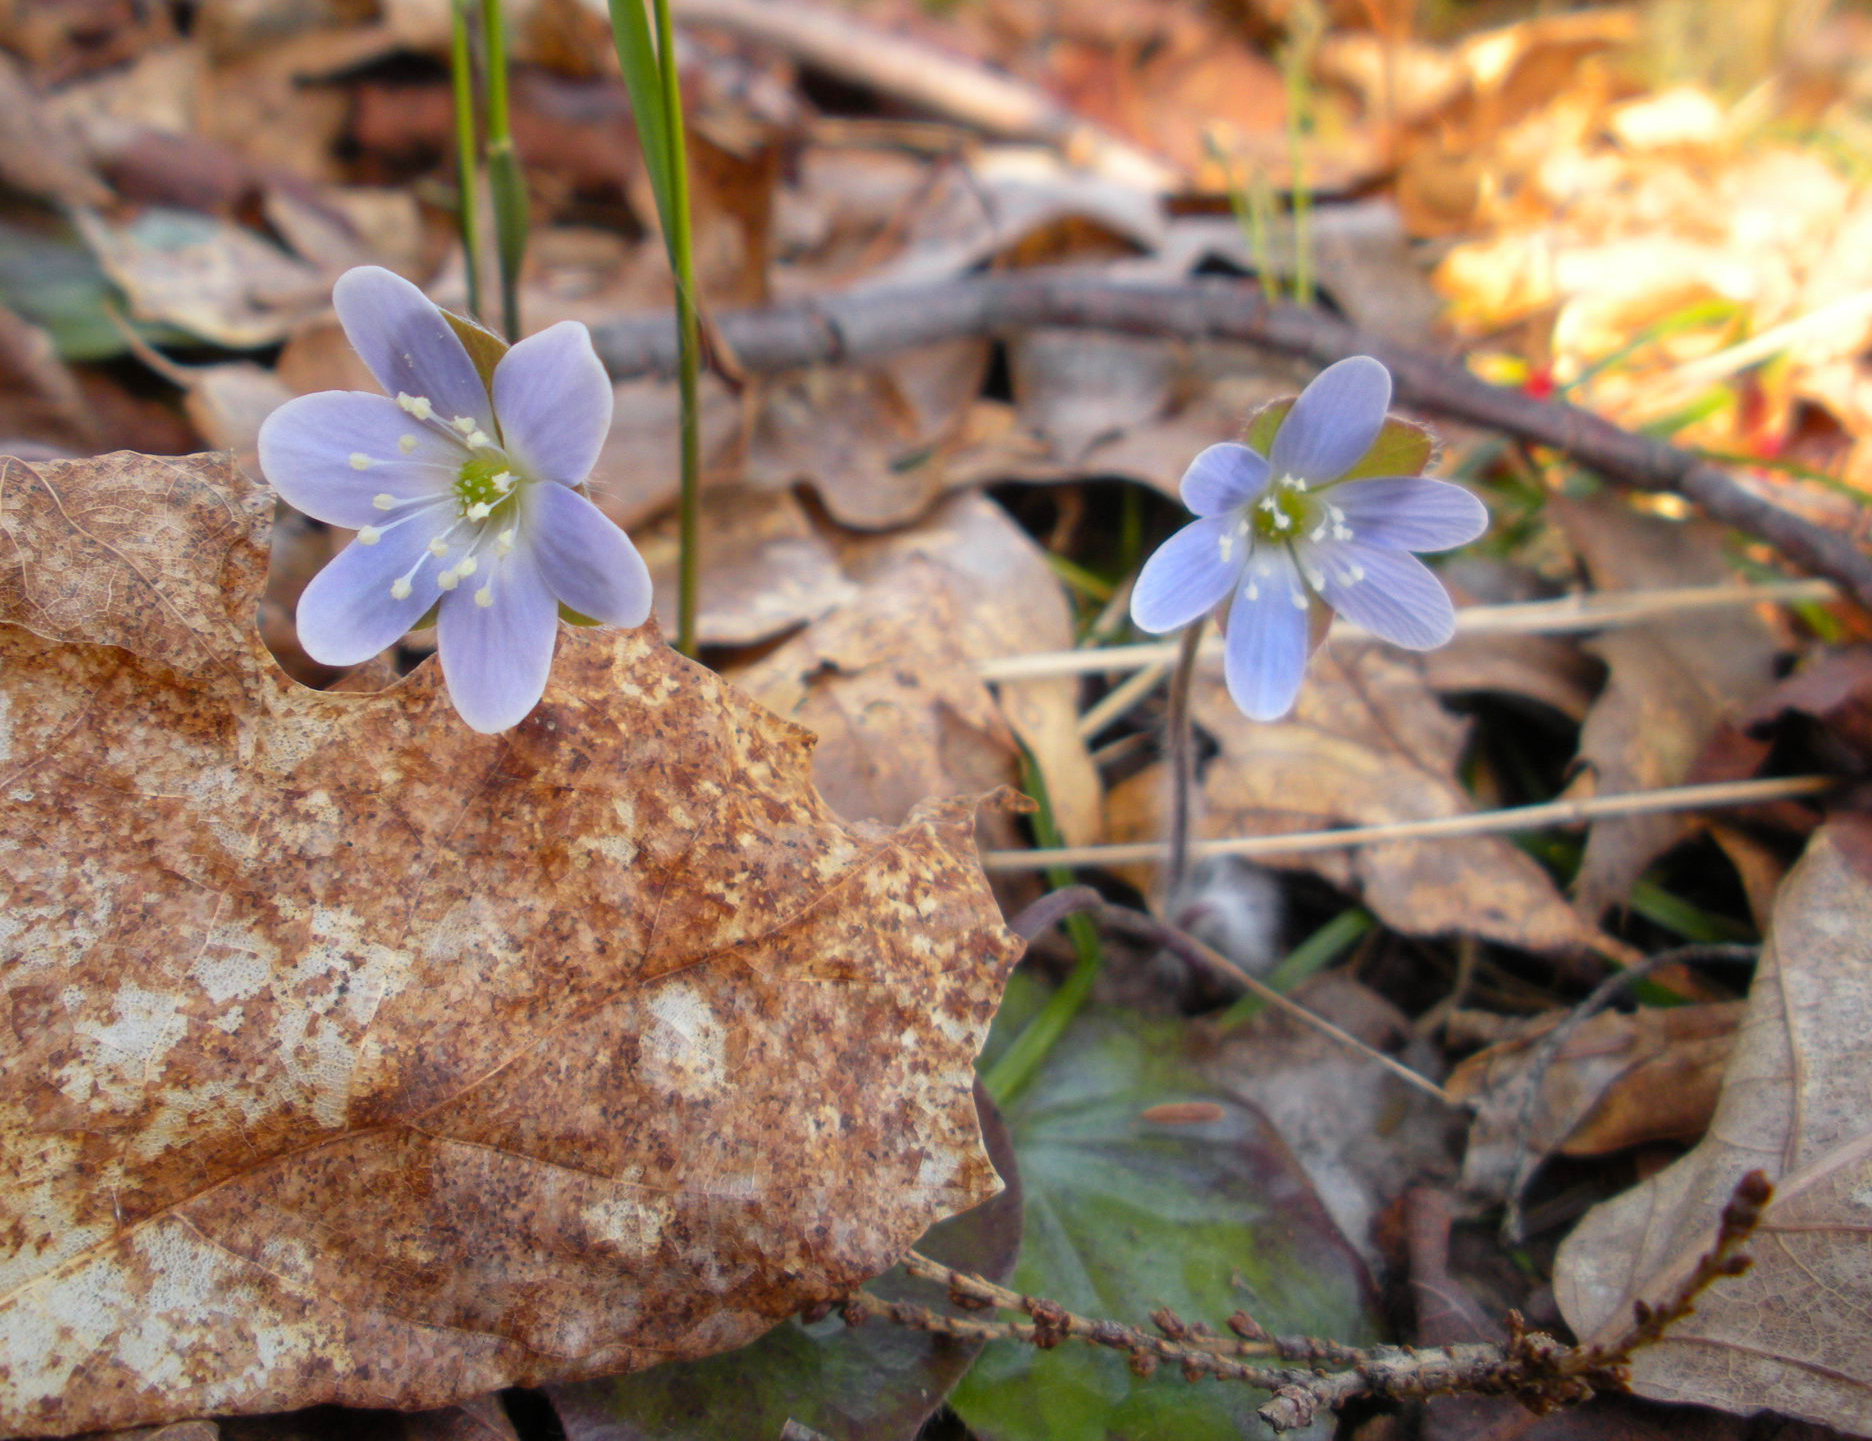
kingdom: Plantae
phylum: Tracheophyta
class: Magnoliopsida
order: Ranunculales
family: Ranunculaceae
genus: Hepatica
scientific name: Hepatica americana
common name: American hepatica
